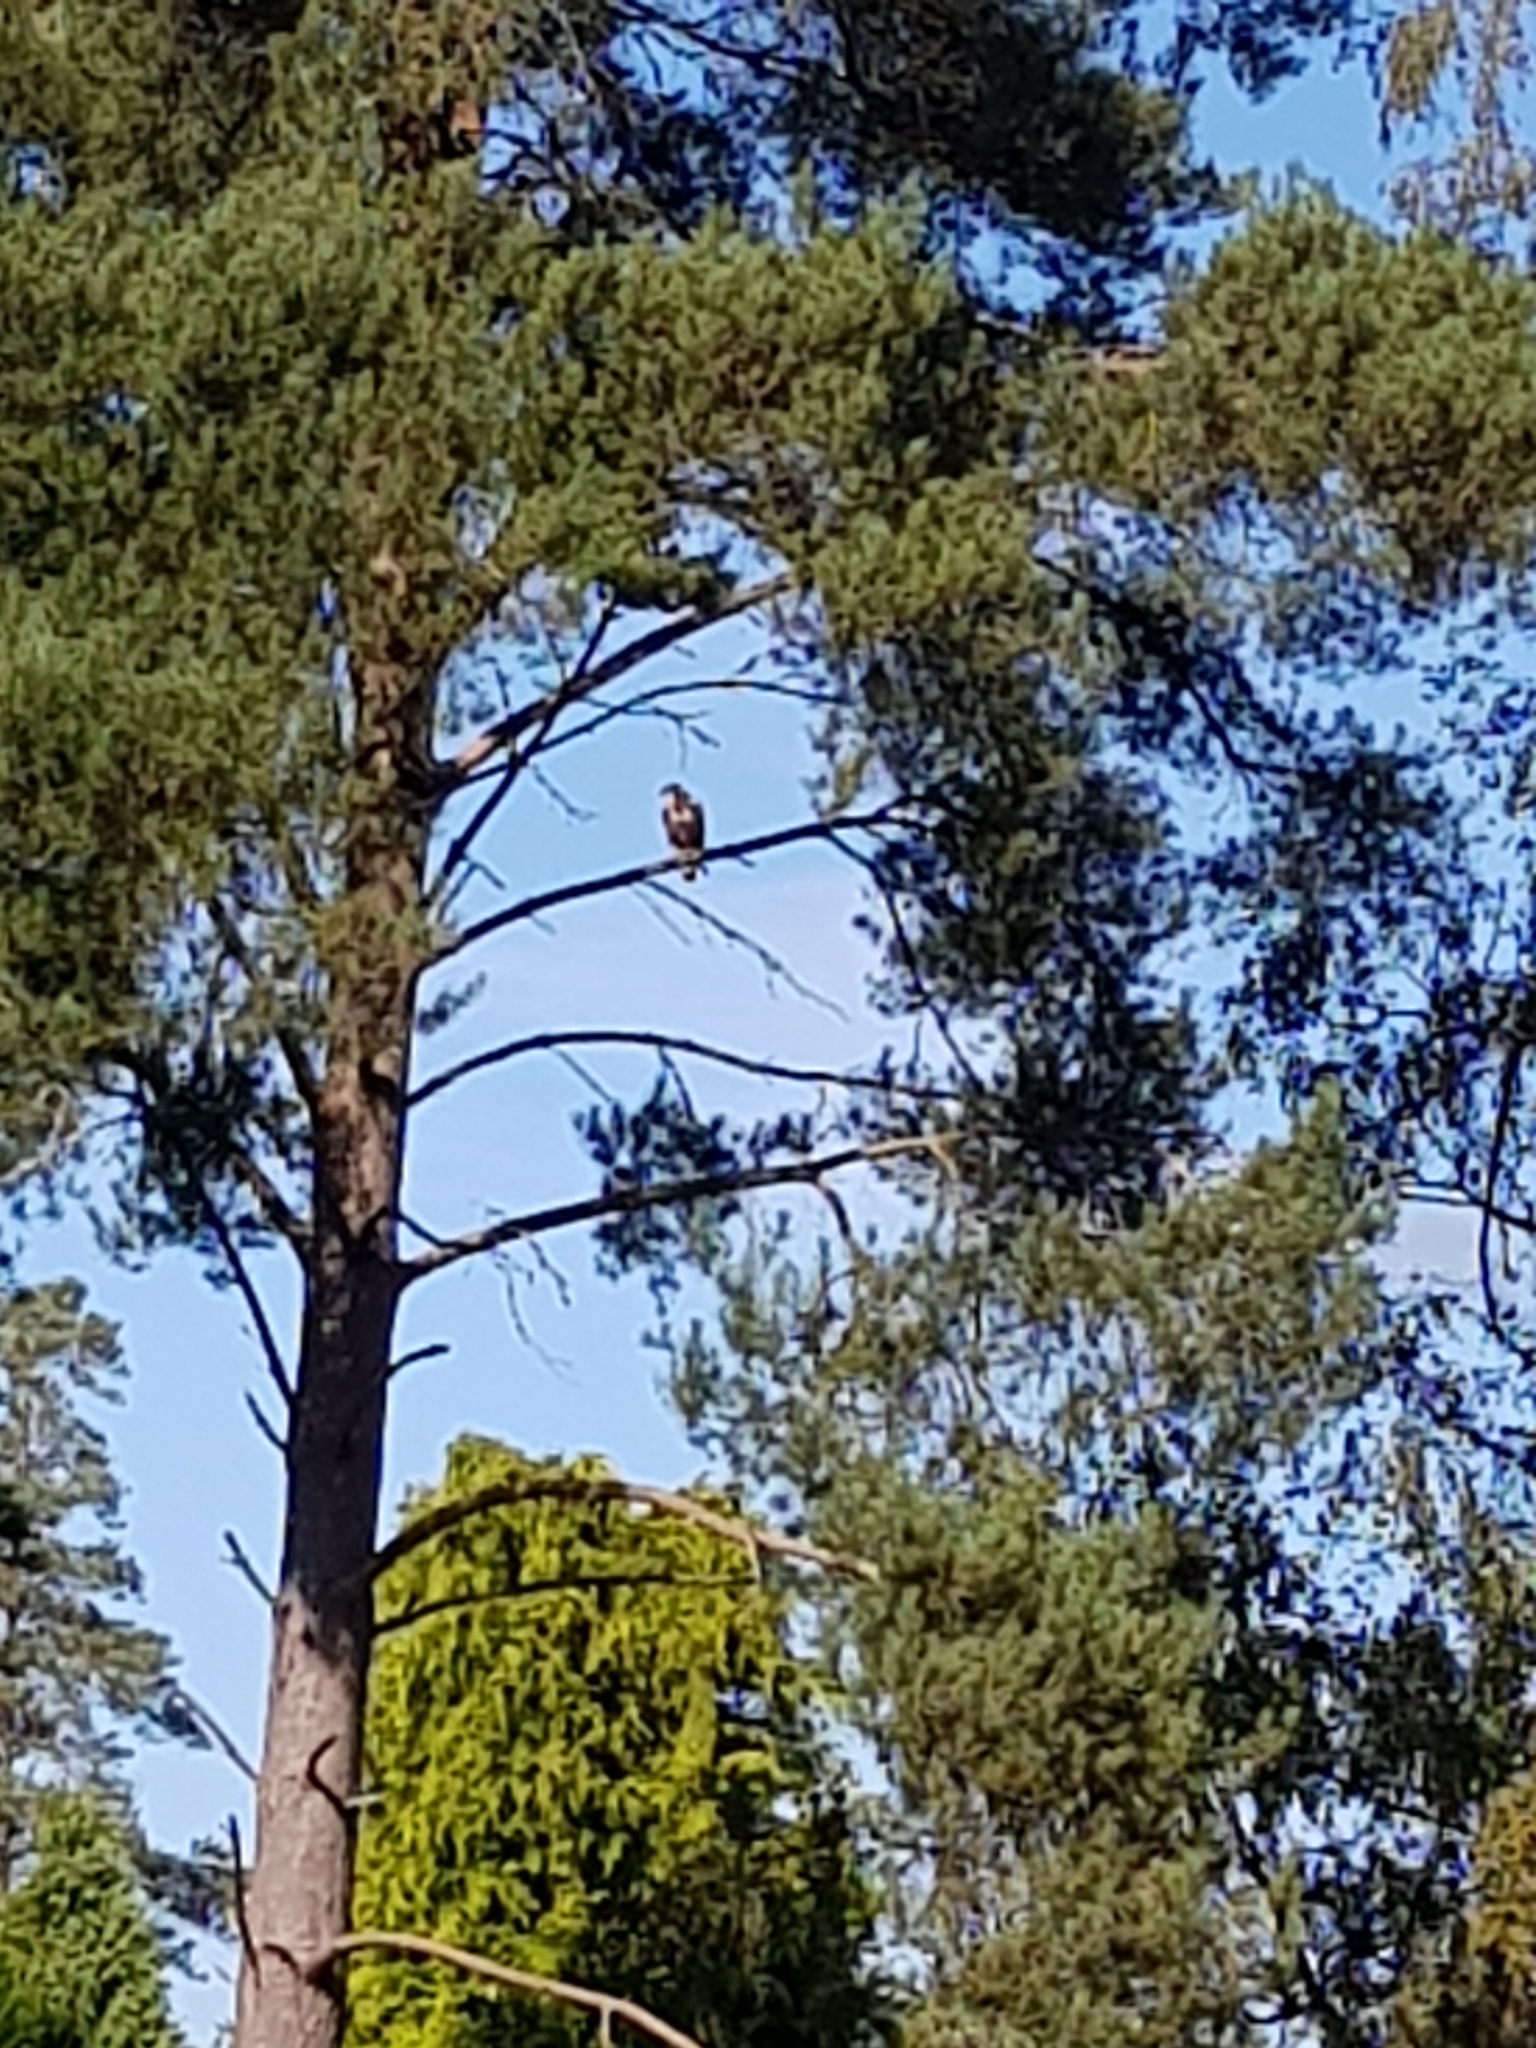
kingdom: Animalia
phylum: Chordata
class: Aves
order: Accipitriformes
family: Accipitridae
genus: Buteo
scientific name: Buteo buteo
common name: Common buzzard
